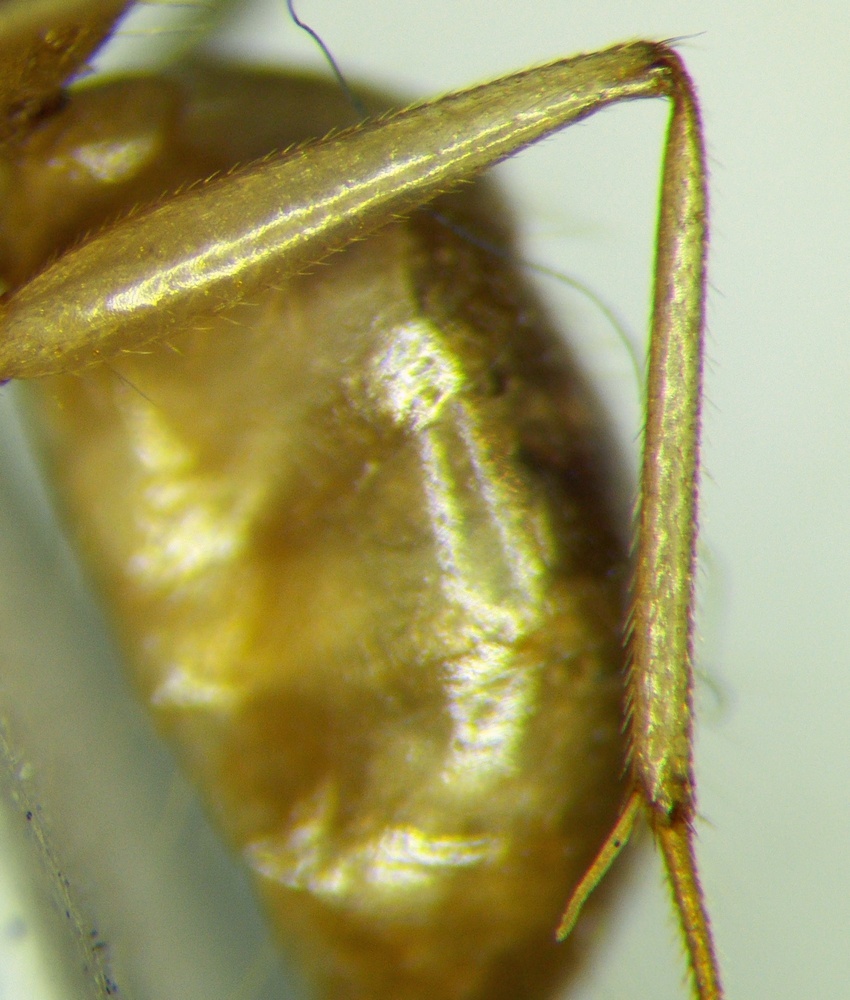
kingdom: Animalia
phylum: Arthropoda
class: Insecta
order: Hymenoptera
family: Formicidae
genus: Camponotus
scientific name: Camponotus fedtschenkoi
